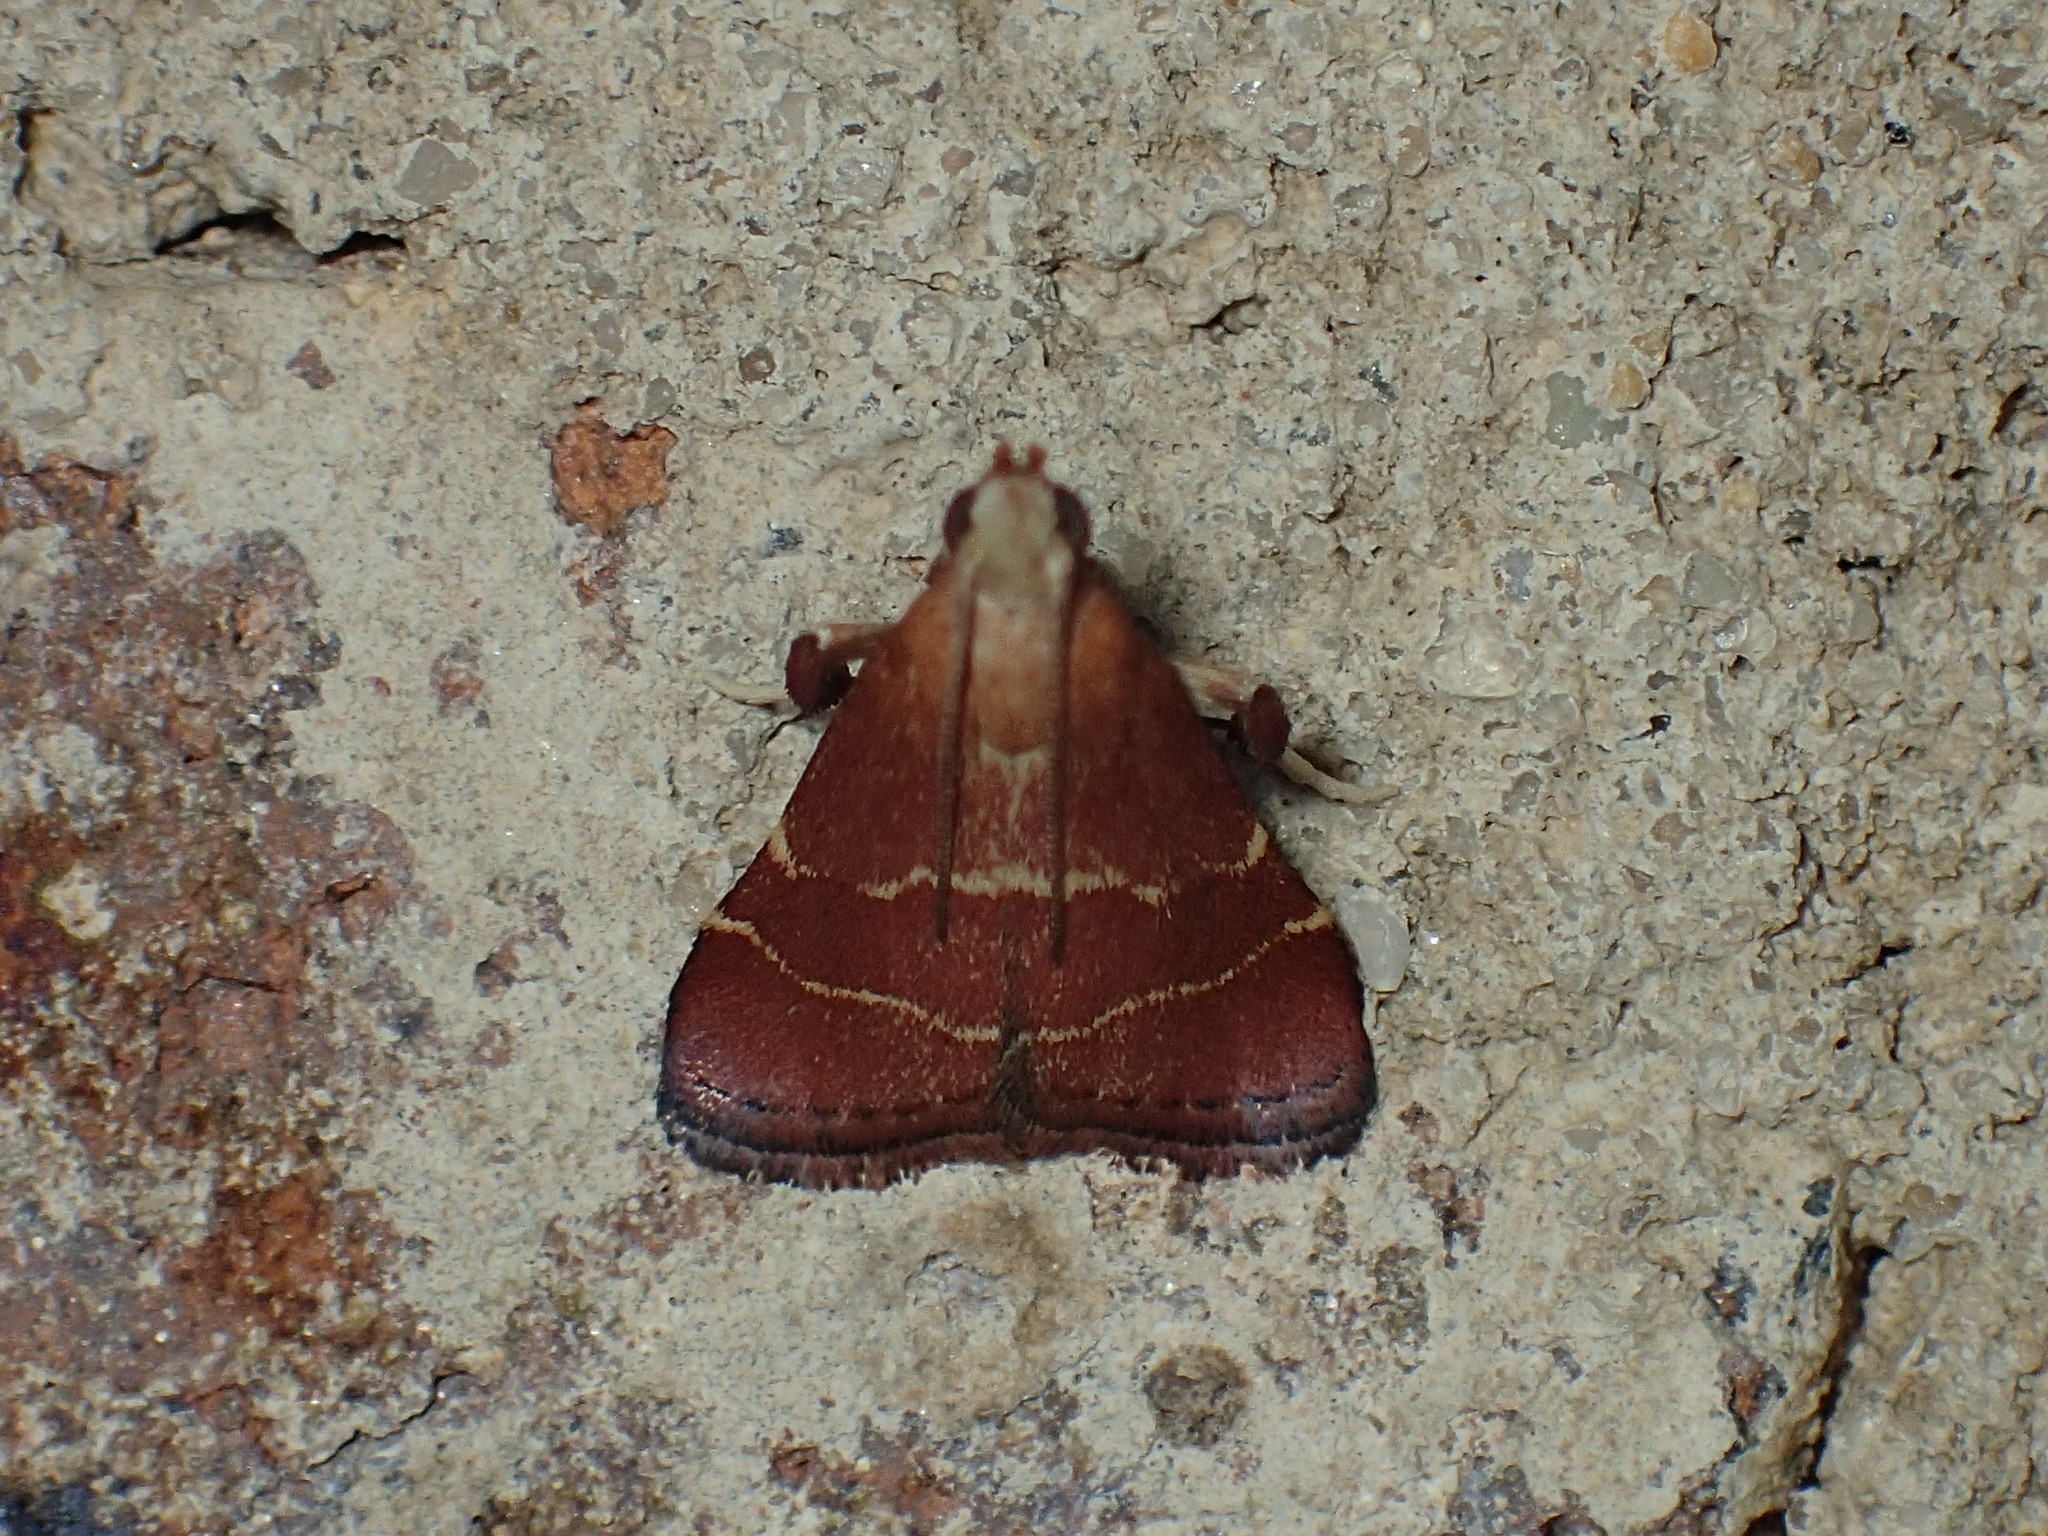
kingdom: Animalia
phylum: Arthropoda
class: Insecta
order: Lepidoptera
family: Pyralidae
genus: Arta
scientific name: Arta statalis
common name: Posturing arta moth
